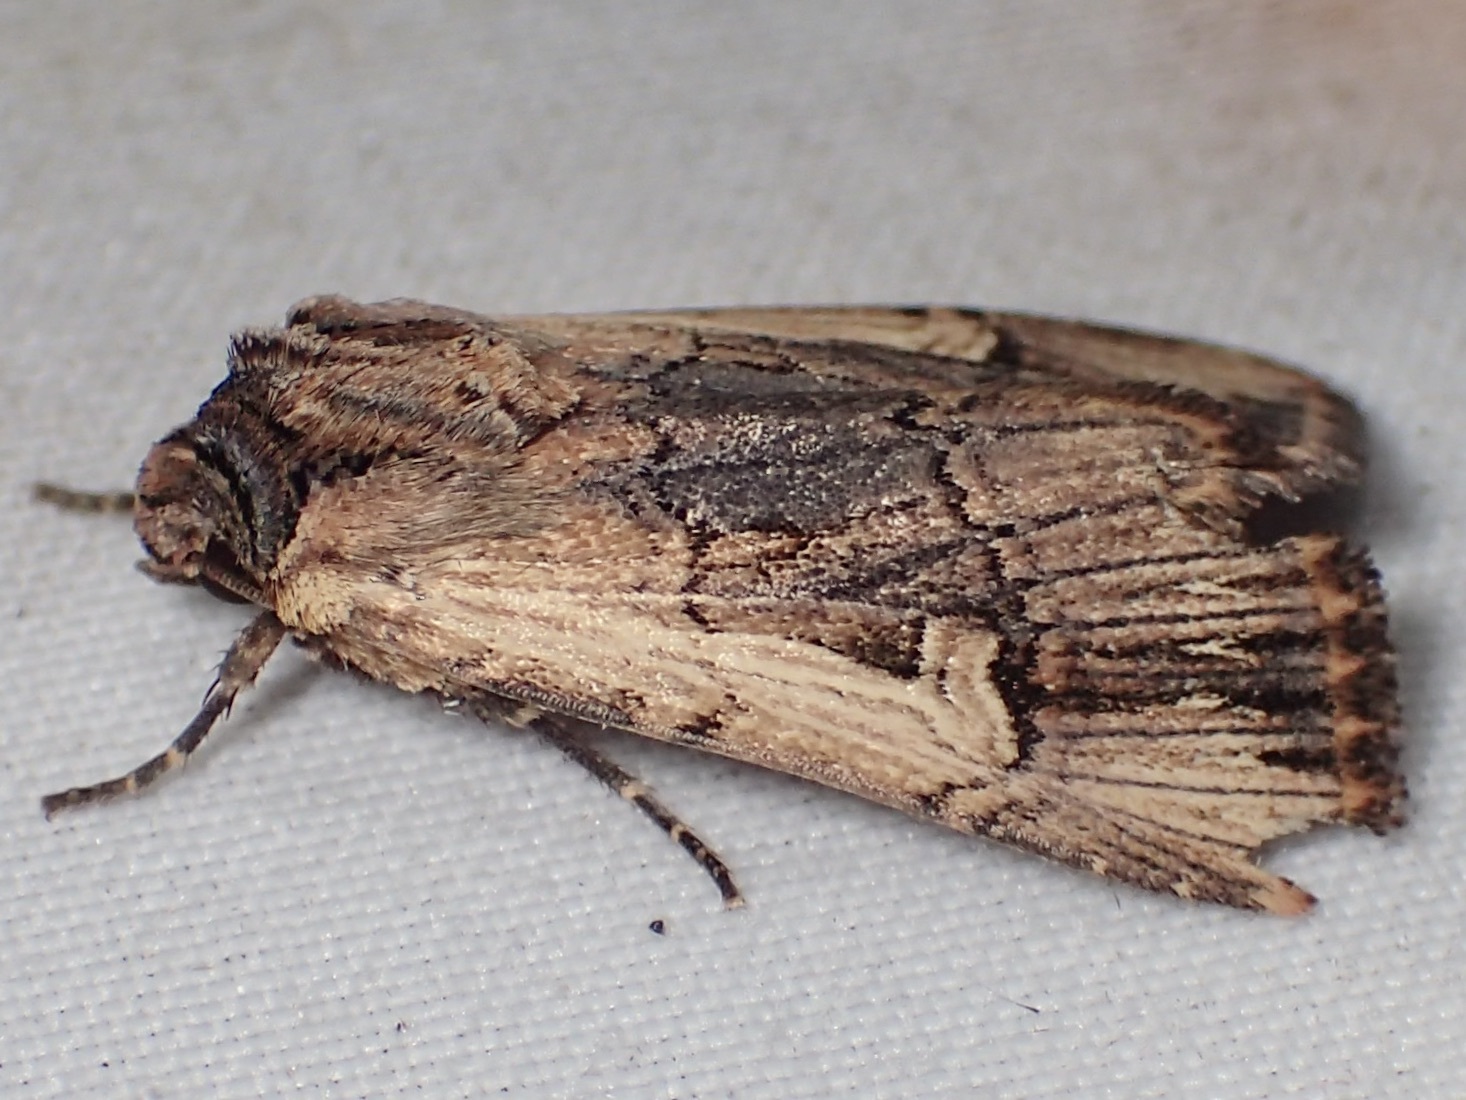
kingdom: Animalia
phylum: Arthropoda
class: Insecta
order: Lepidoptera
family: Noctuidae
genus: Dichagyris
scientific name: Dichagyris cataclivis
